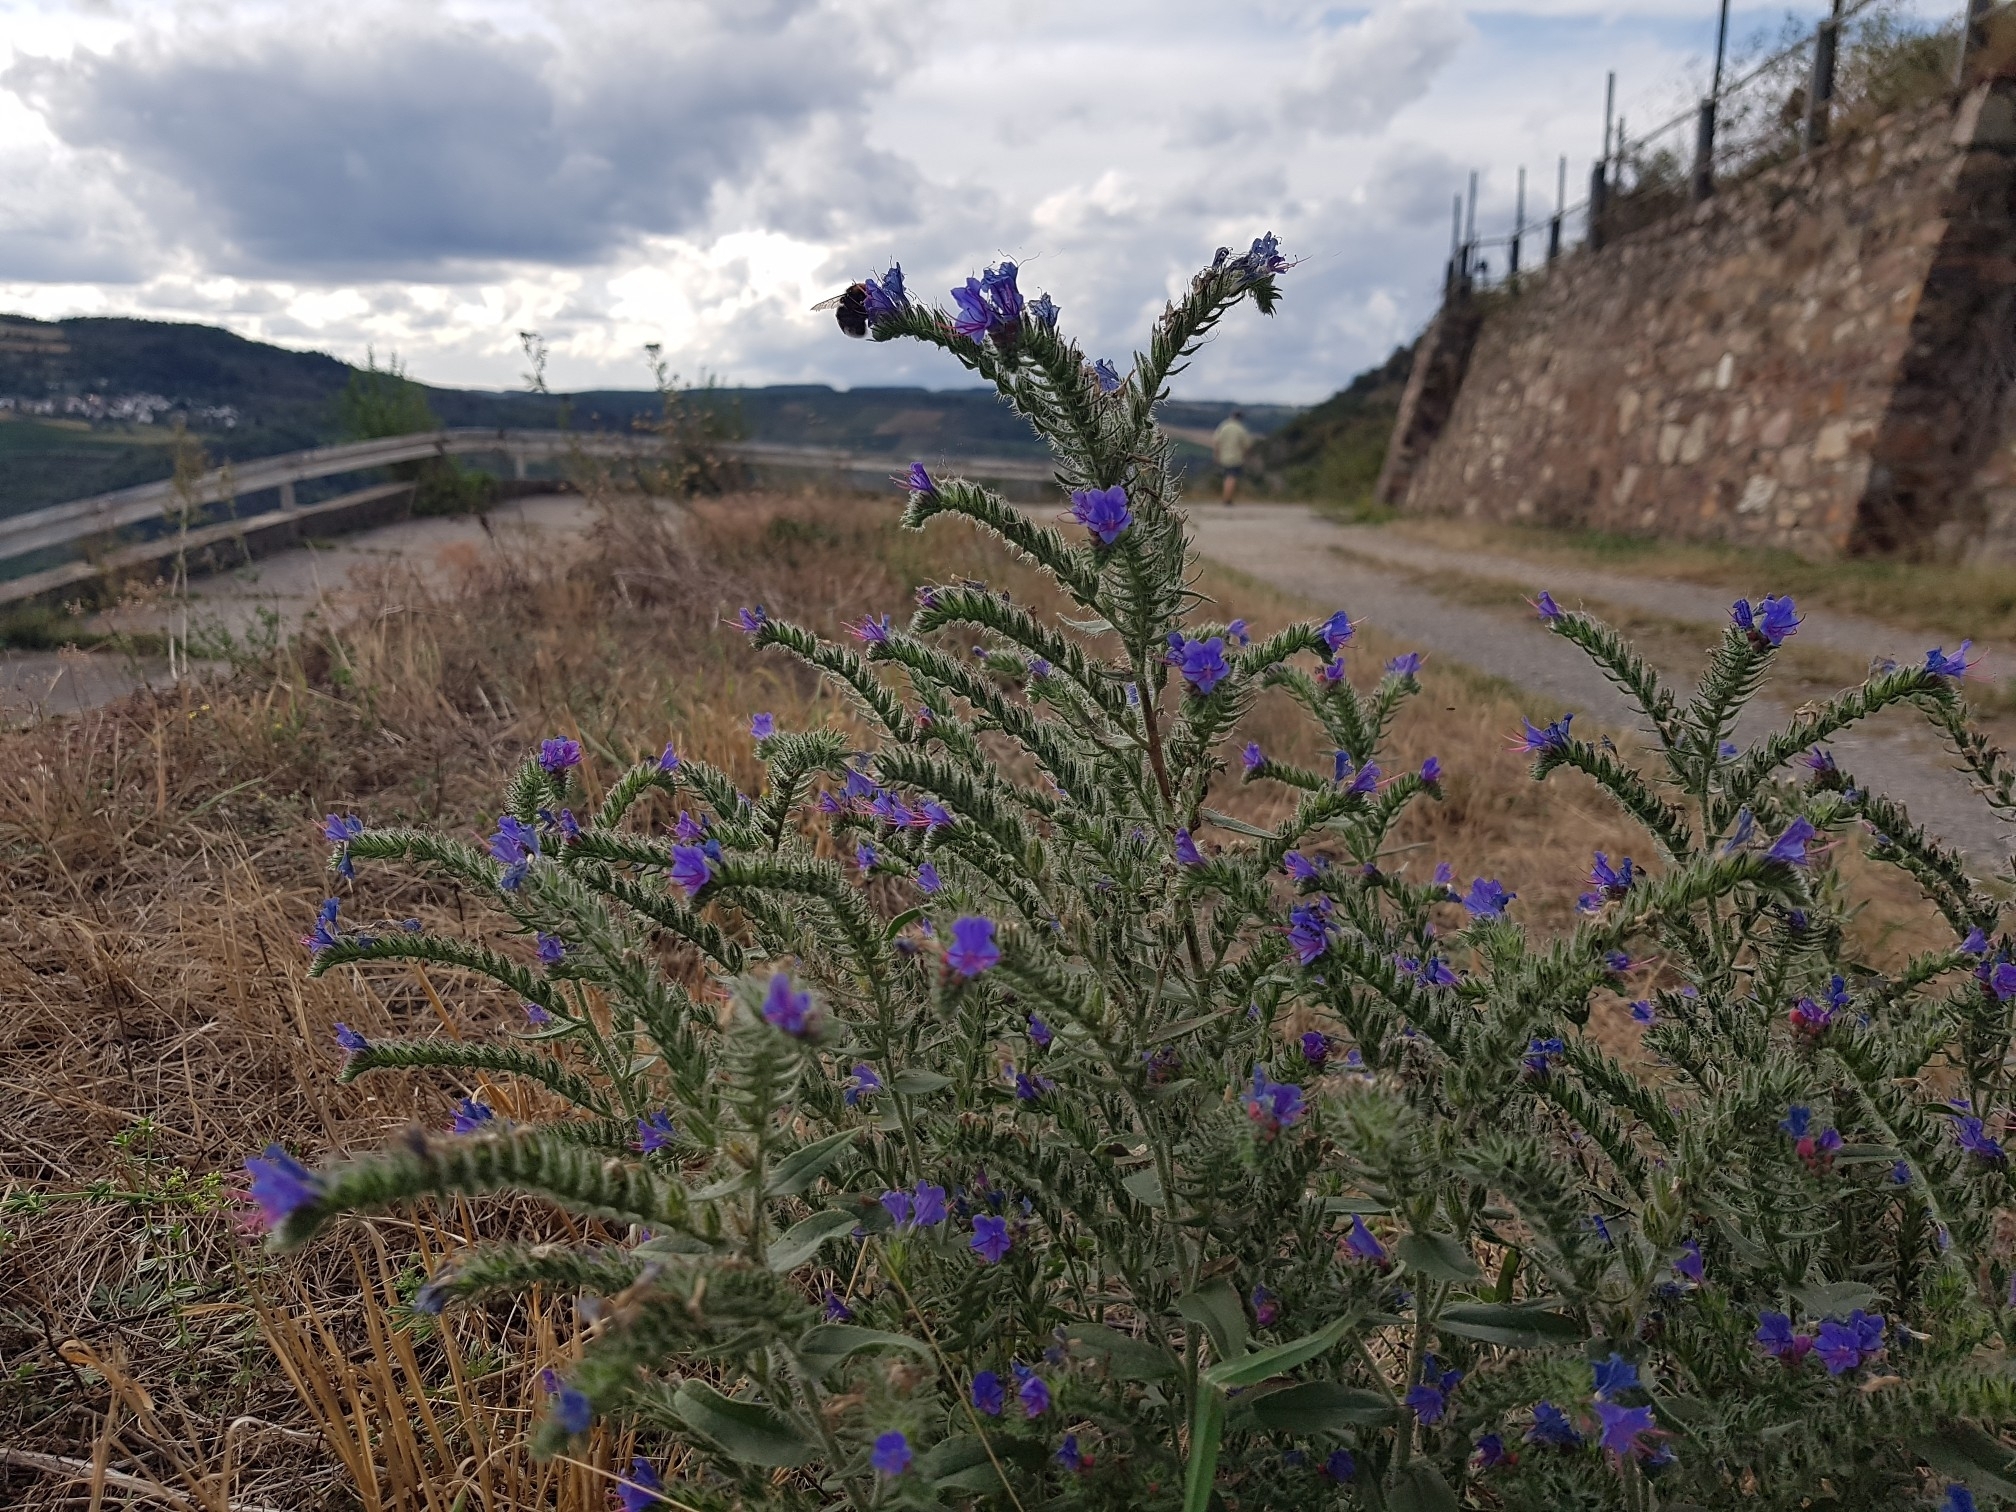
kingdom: Plantae
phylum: Tracheophyta
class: Magnoliopsida
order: Boraginales
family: Boraginaceae
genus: Echium
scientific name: Echium vulgare
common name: Common viper's bugloss
